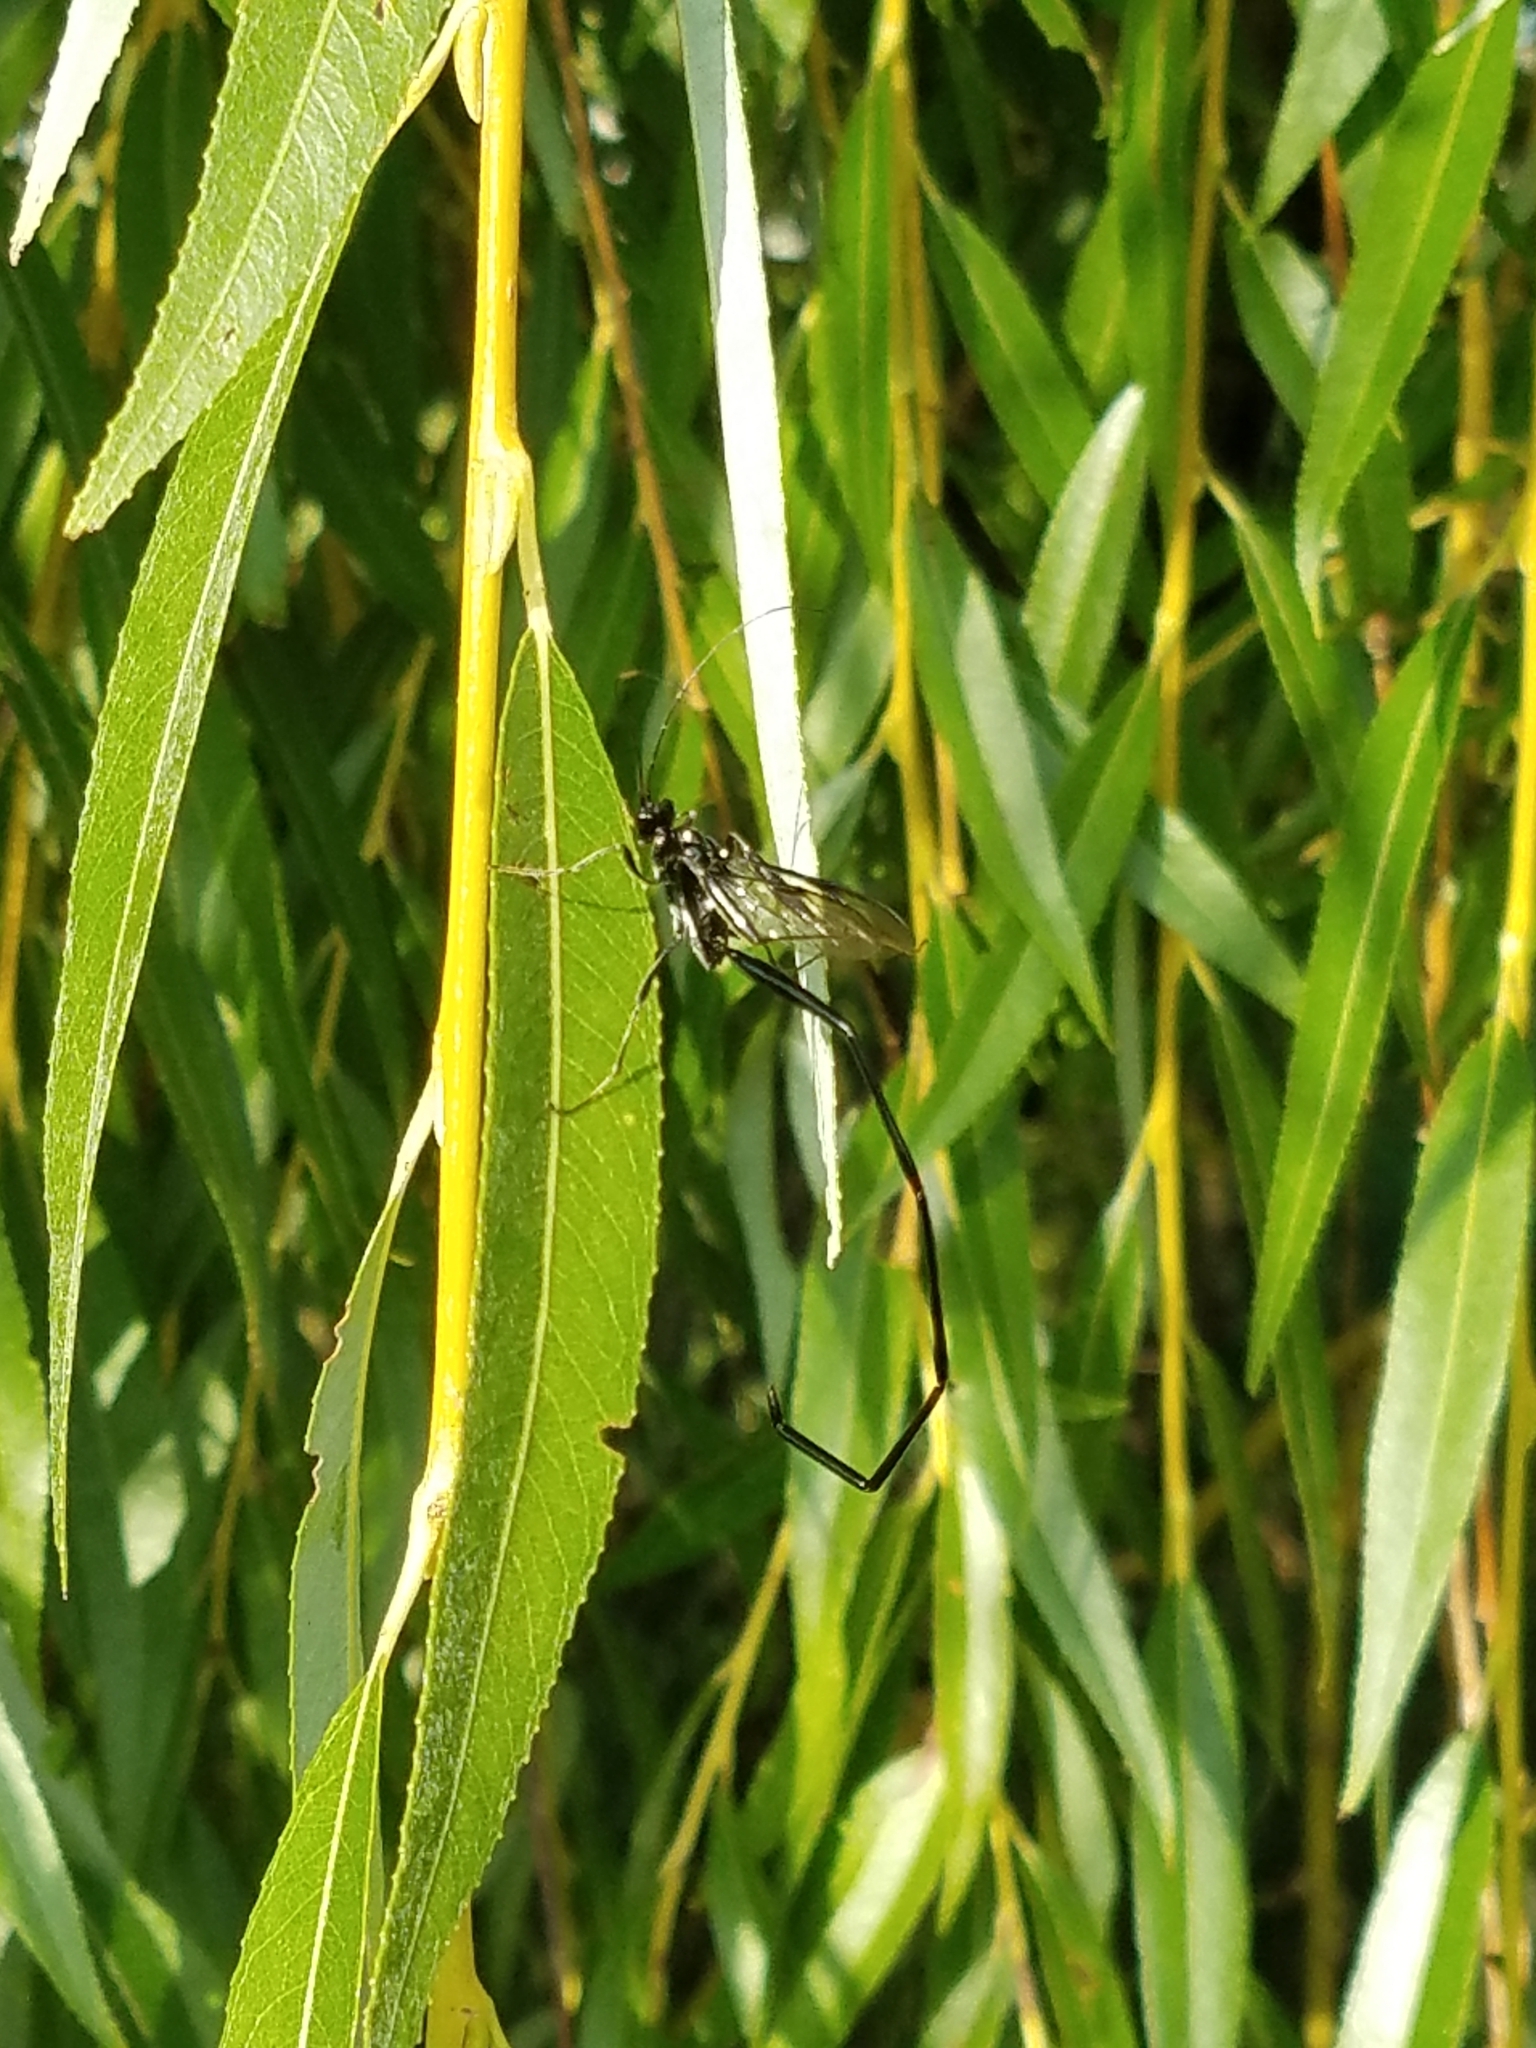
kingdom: Animalia
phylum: Arthropoda
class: Insecta
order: Hymenoptera
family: Pelecinidae
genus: Pelecinus
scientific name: Pelecinus polyturator
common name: American pelecinid wasp
